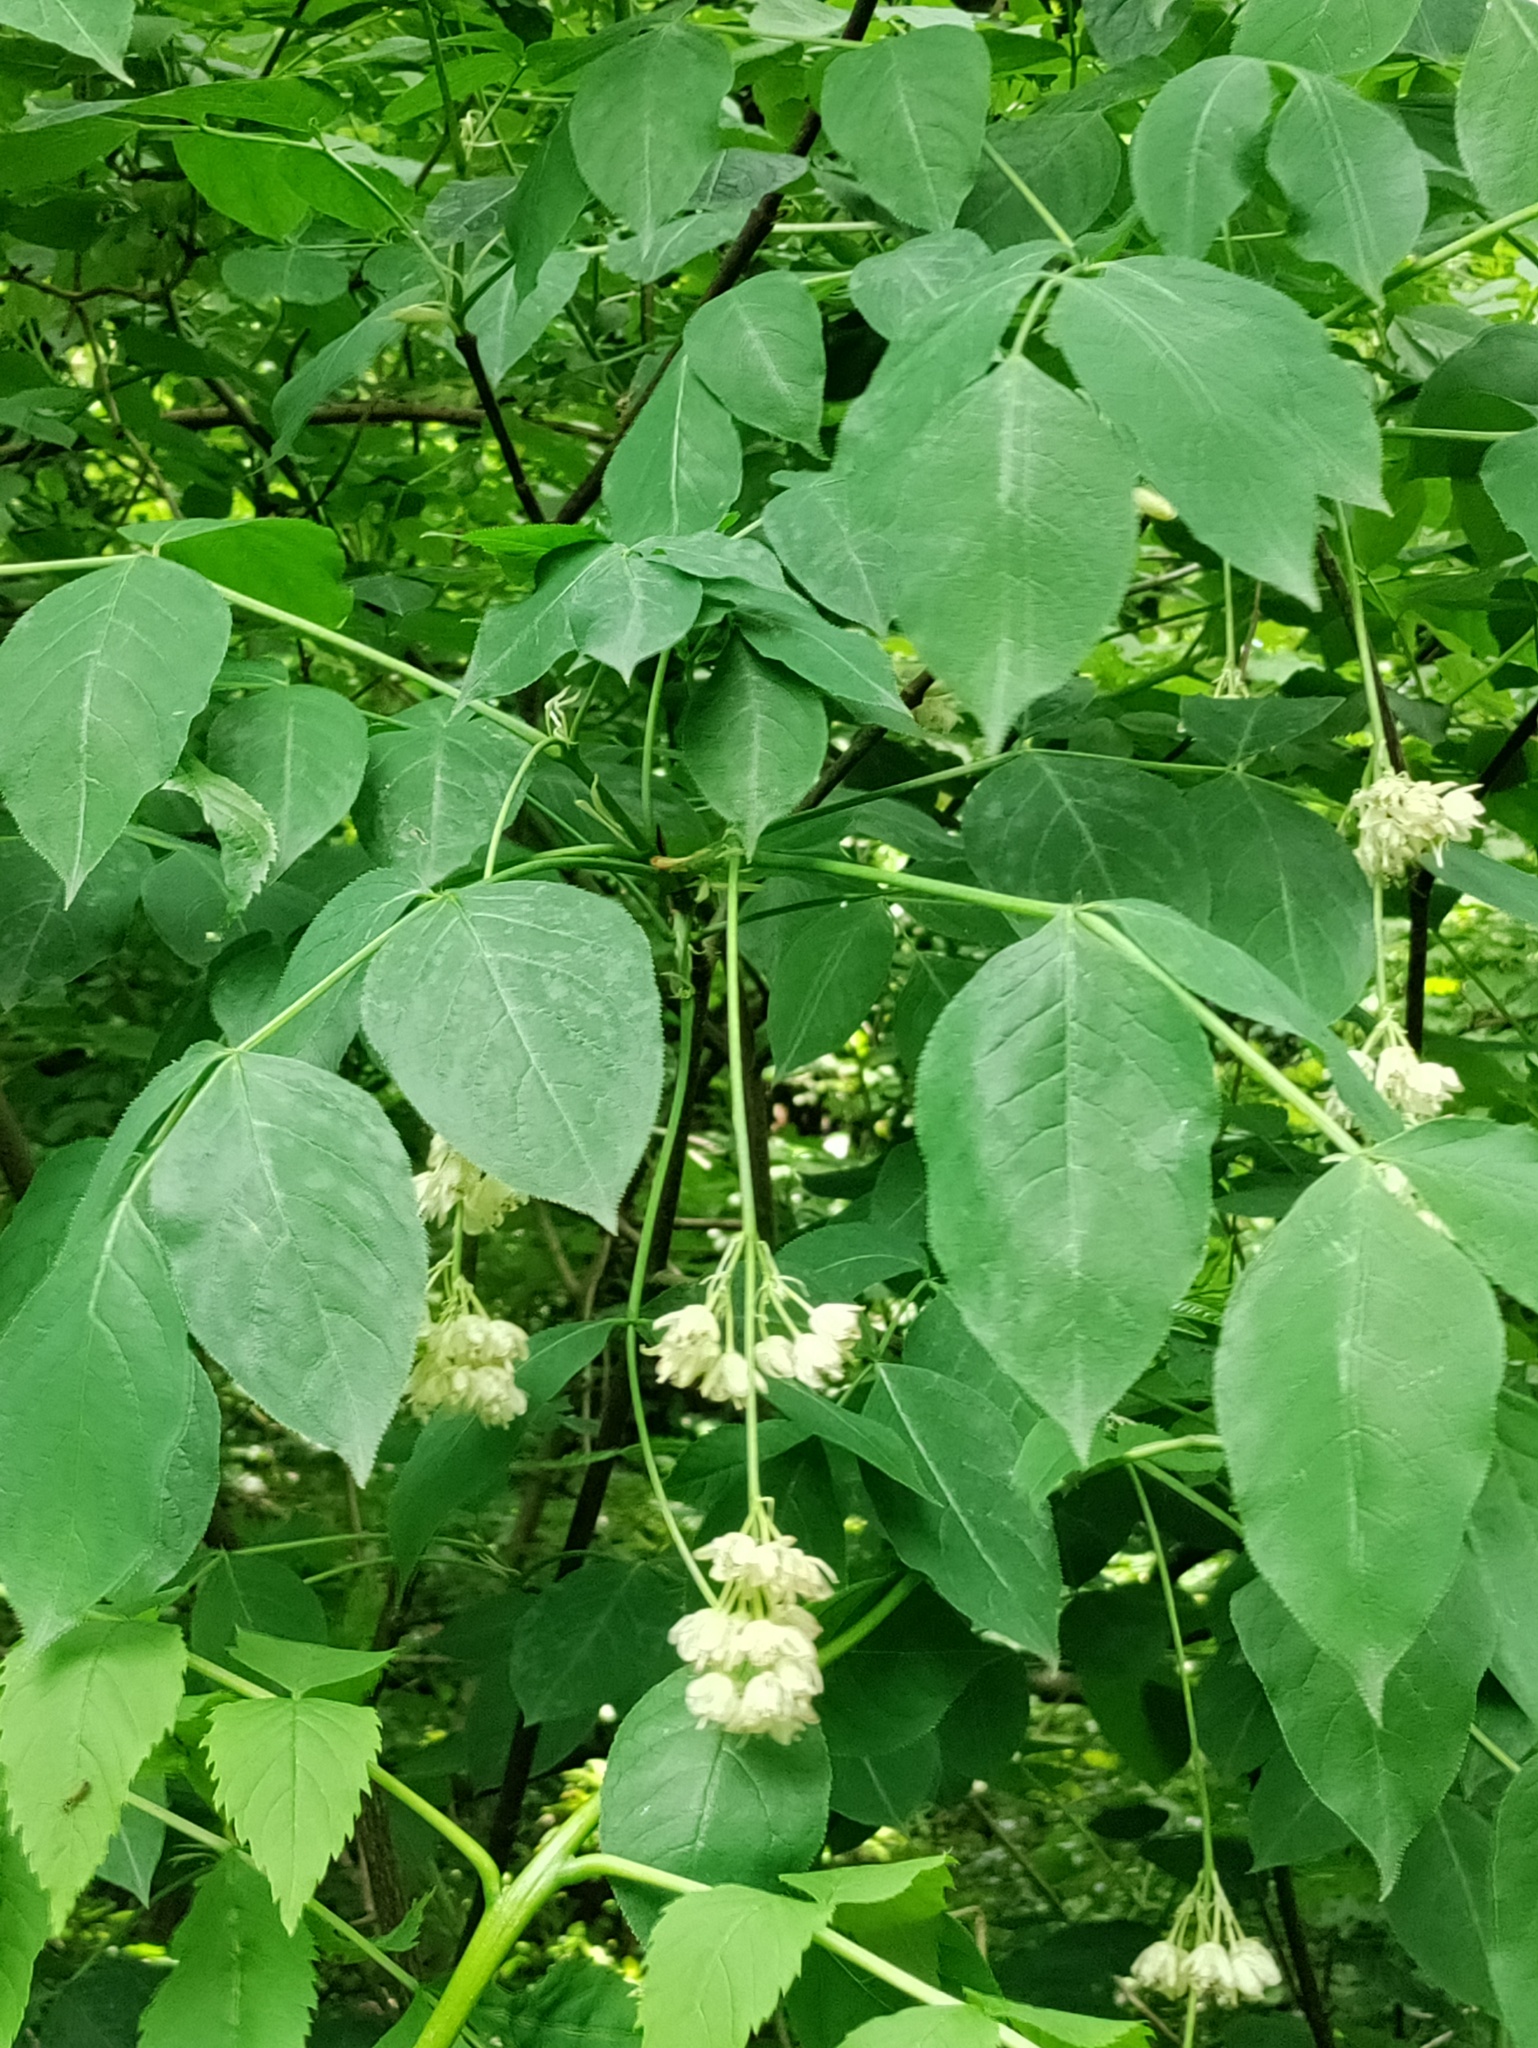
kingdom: Plantae
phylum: Tracheophyta
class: Magnoliopsida
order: Crossosomatales
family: Staphyleaceae
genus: Staphylea
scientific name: Staphylea pinnata
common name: Bladdernut
